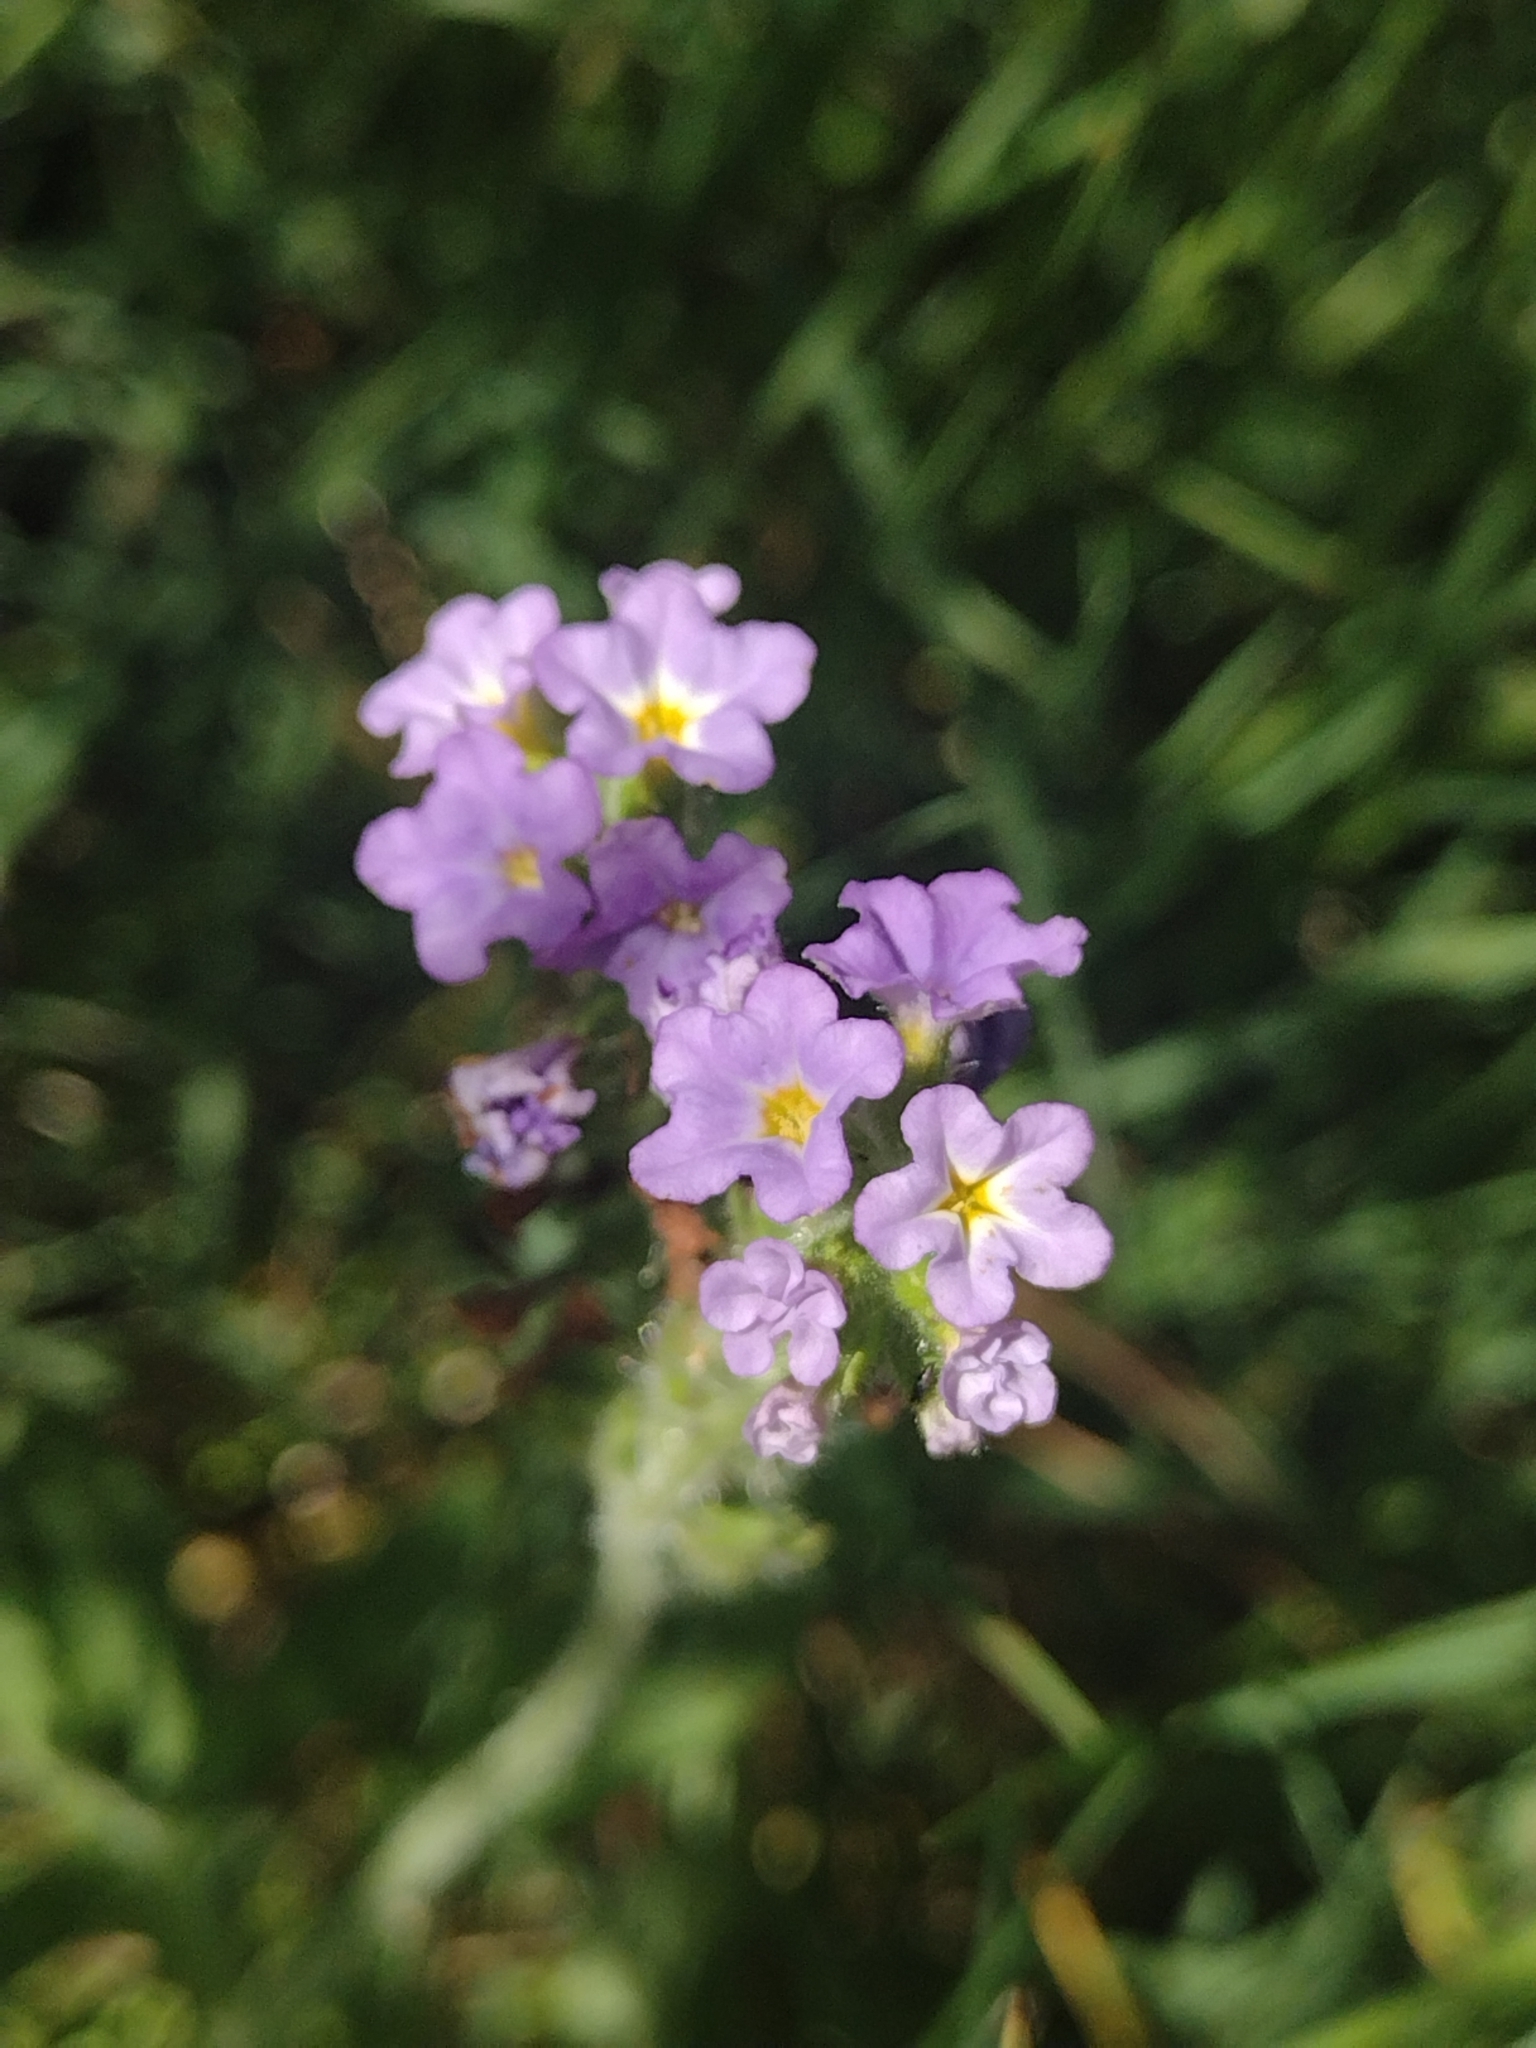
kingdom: Plantae
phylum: Tracheophyta
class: Magnoliopsida
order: Boraginales
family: Heliotropiaceae
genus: Heliotropium
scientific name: Heliotropium amplexicaule
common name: Clasping heliotrope
